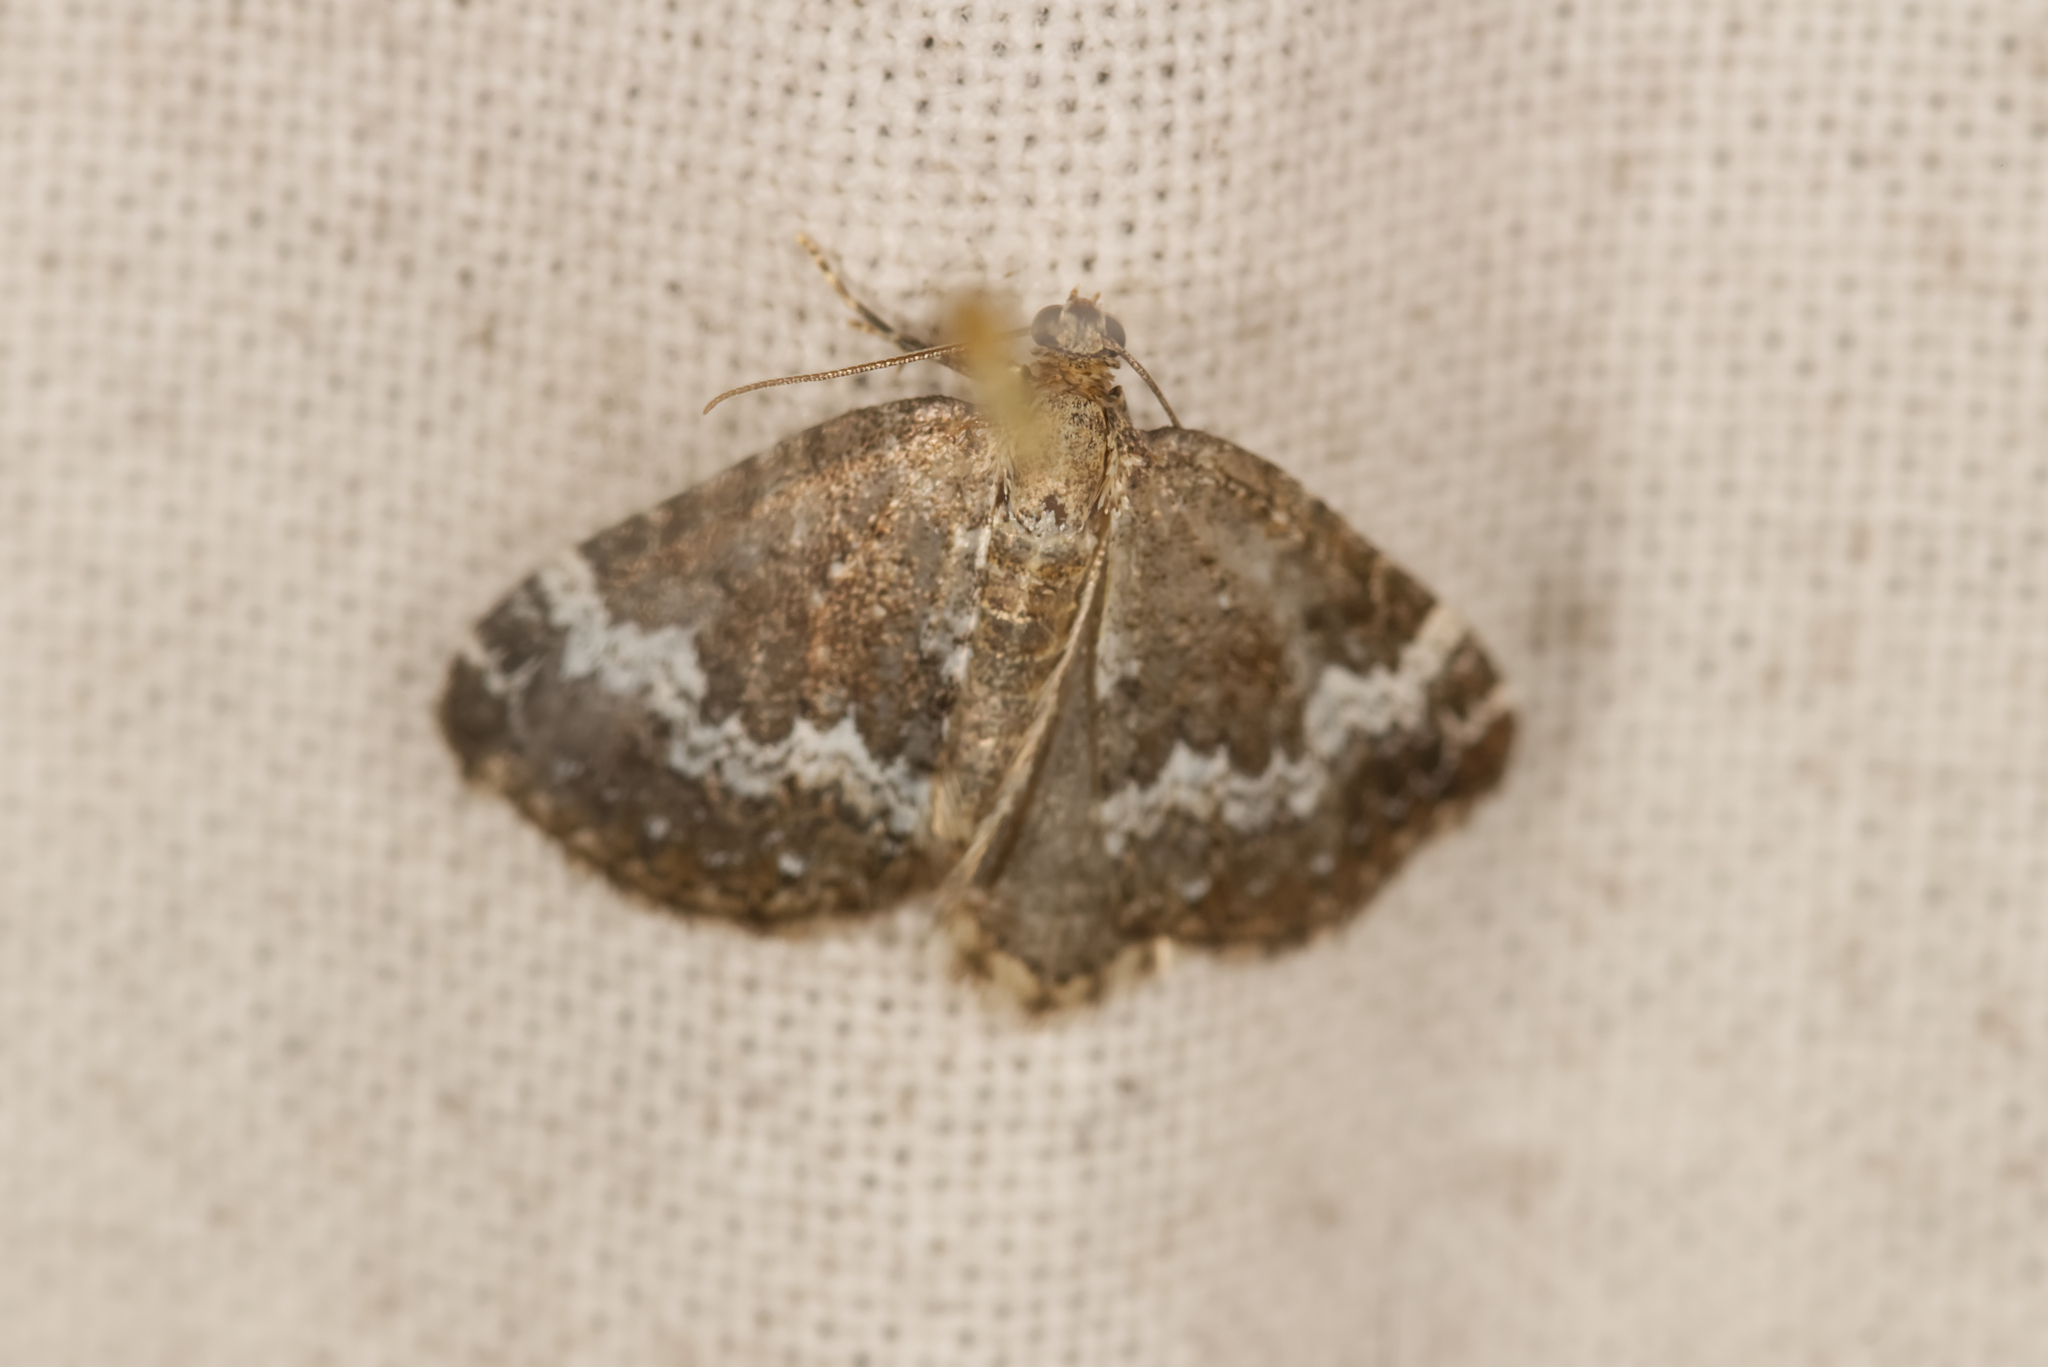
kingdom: Animalia
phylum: Arthropoda
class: Insecta
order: Lepidoptera
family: Geometridae
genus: Perizoma
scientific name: Perizoma alchemillata
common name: Small rivulet
